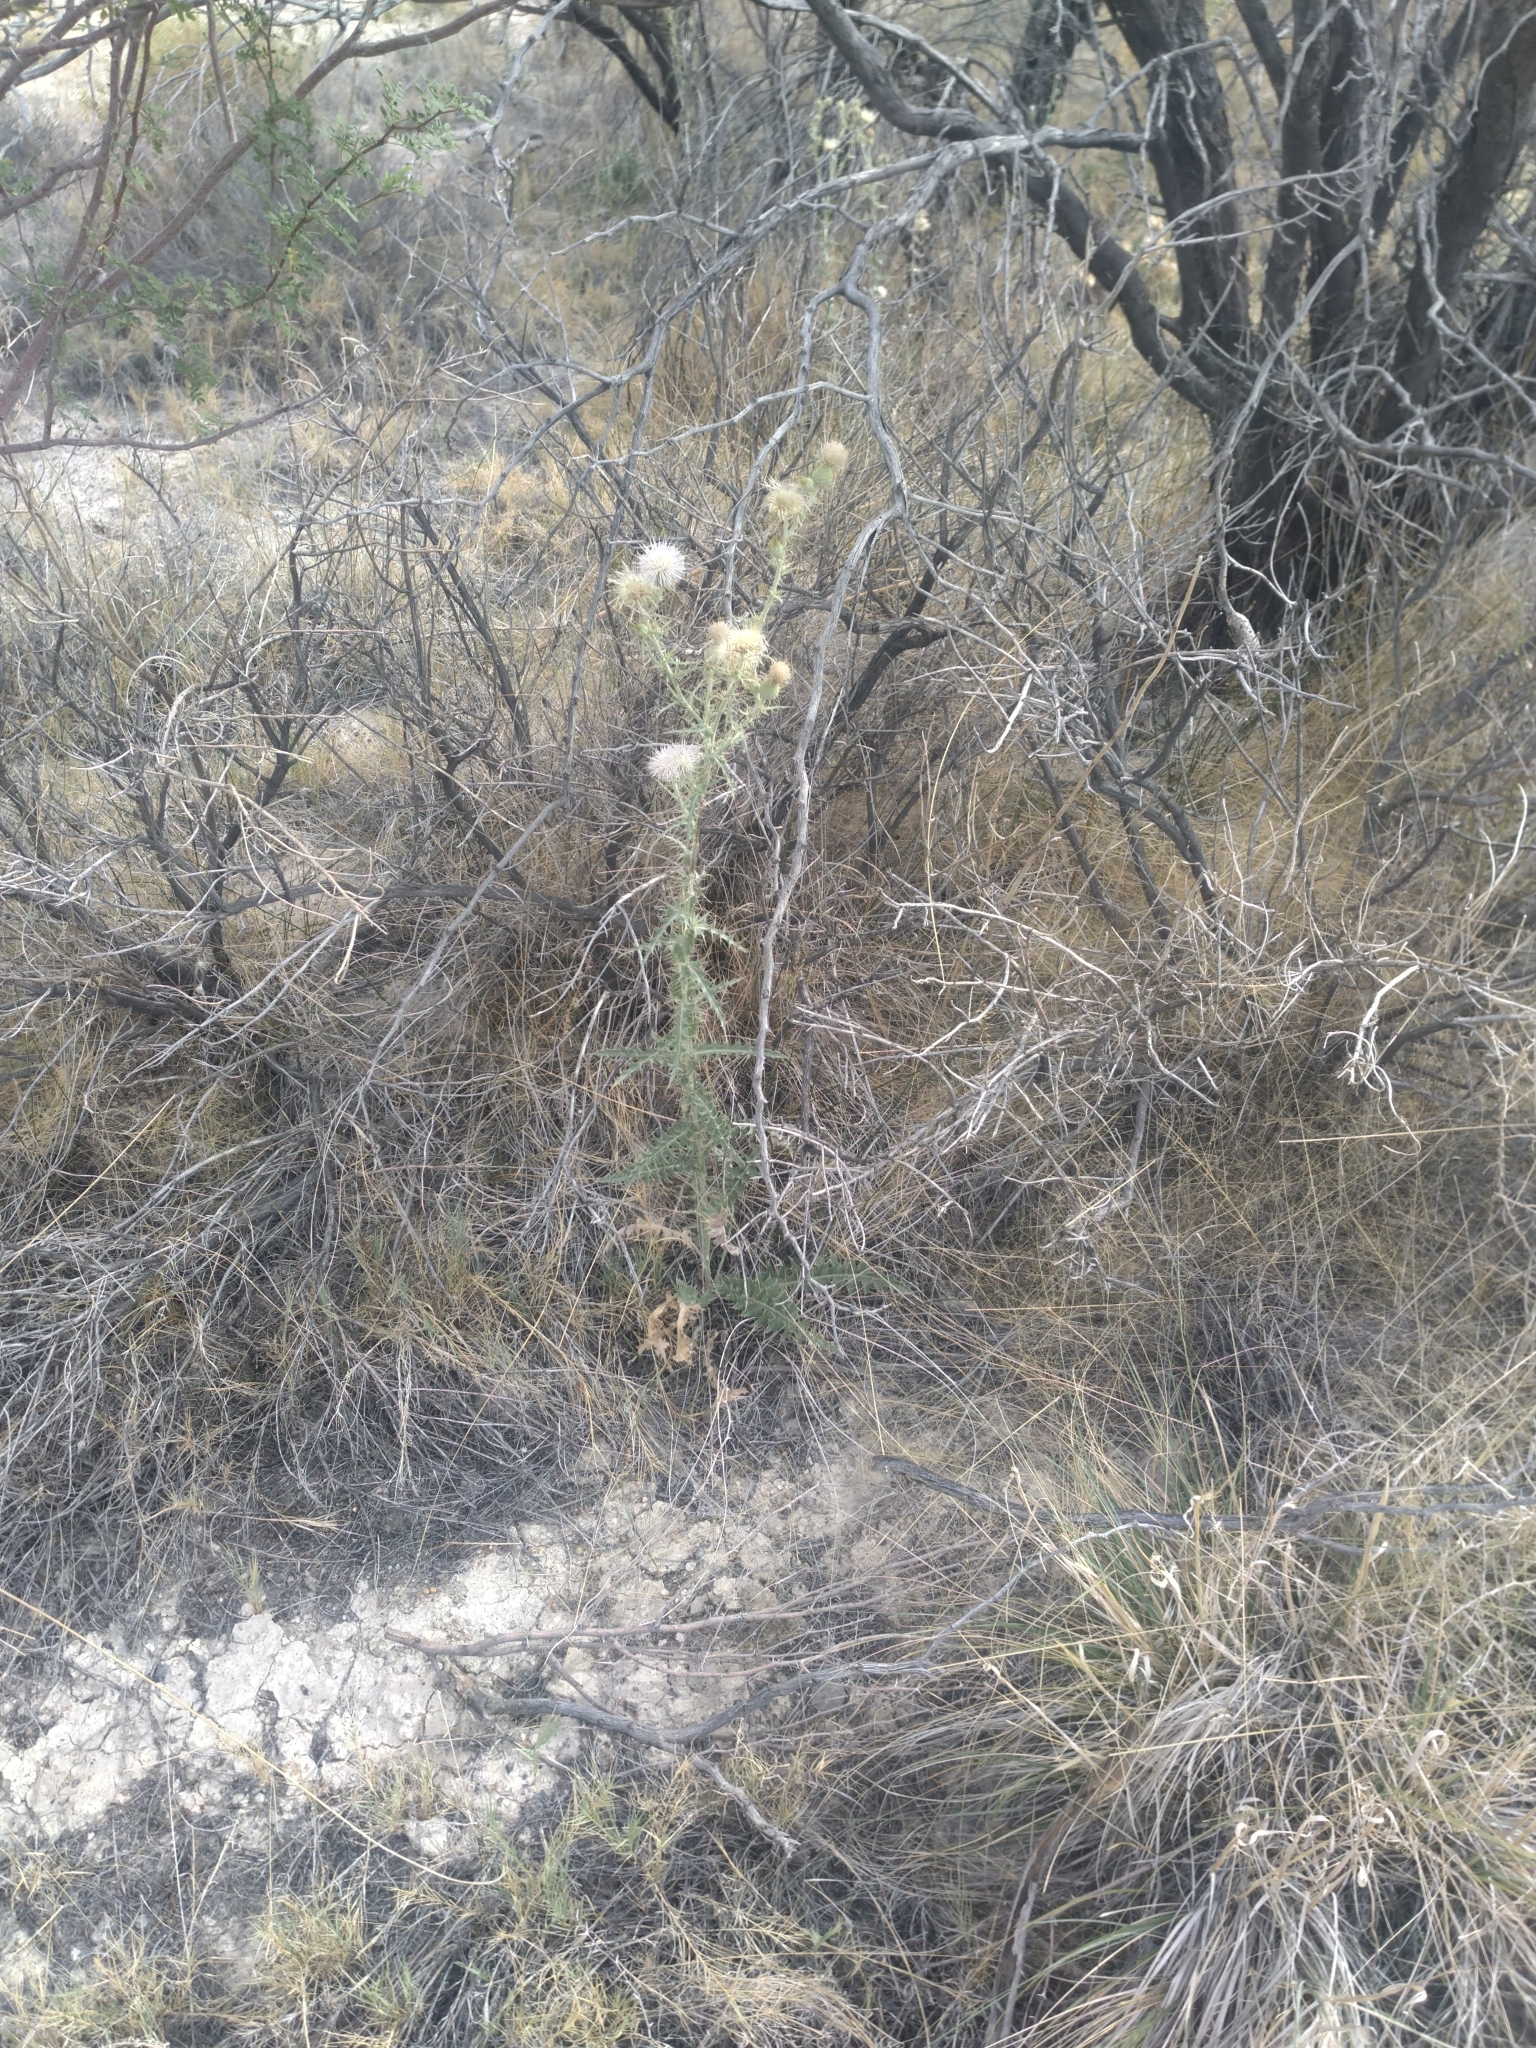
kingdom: Plantae
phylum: Tracheophyta
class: Magnoliopsida
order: Asterales
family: Asteraceae
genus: Cirsium
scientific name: Cirsium mohavense
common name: Mojave thistle
